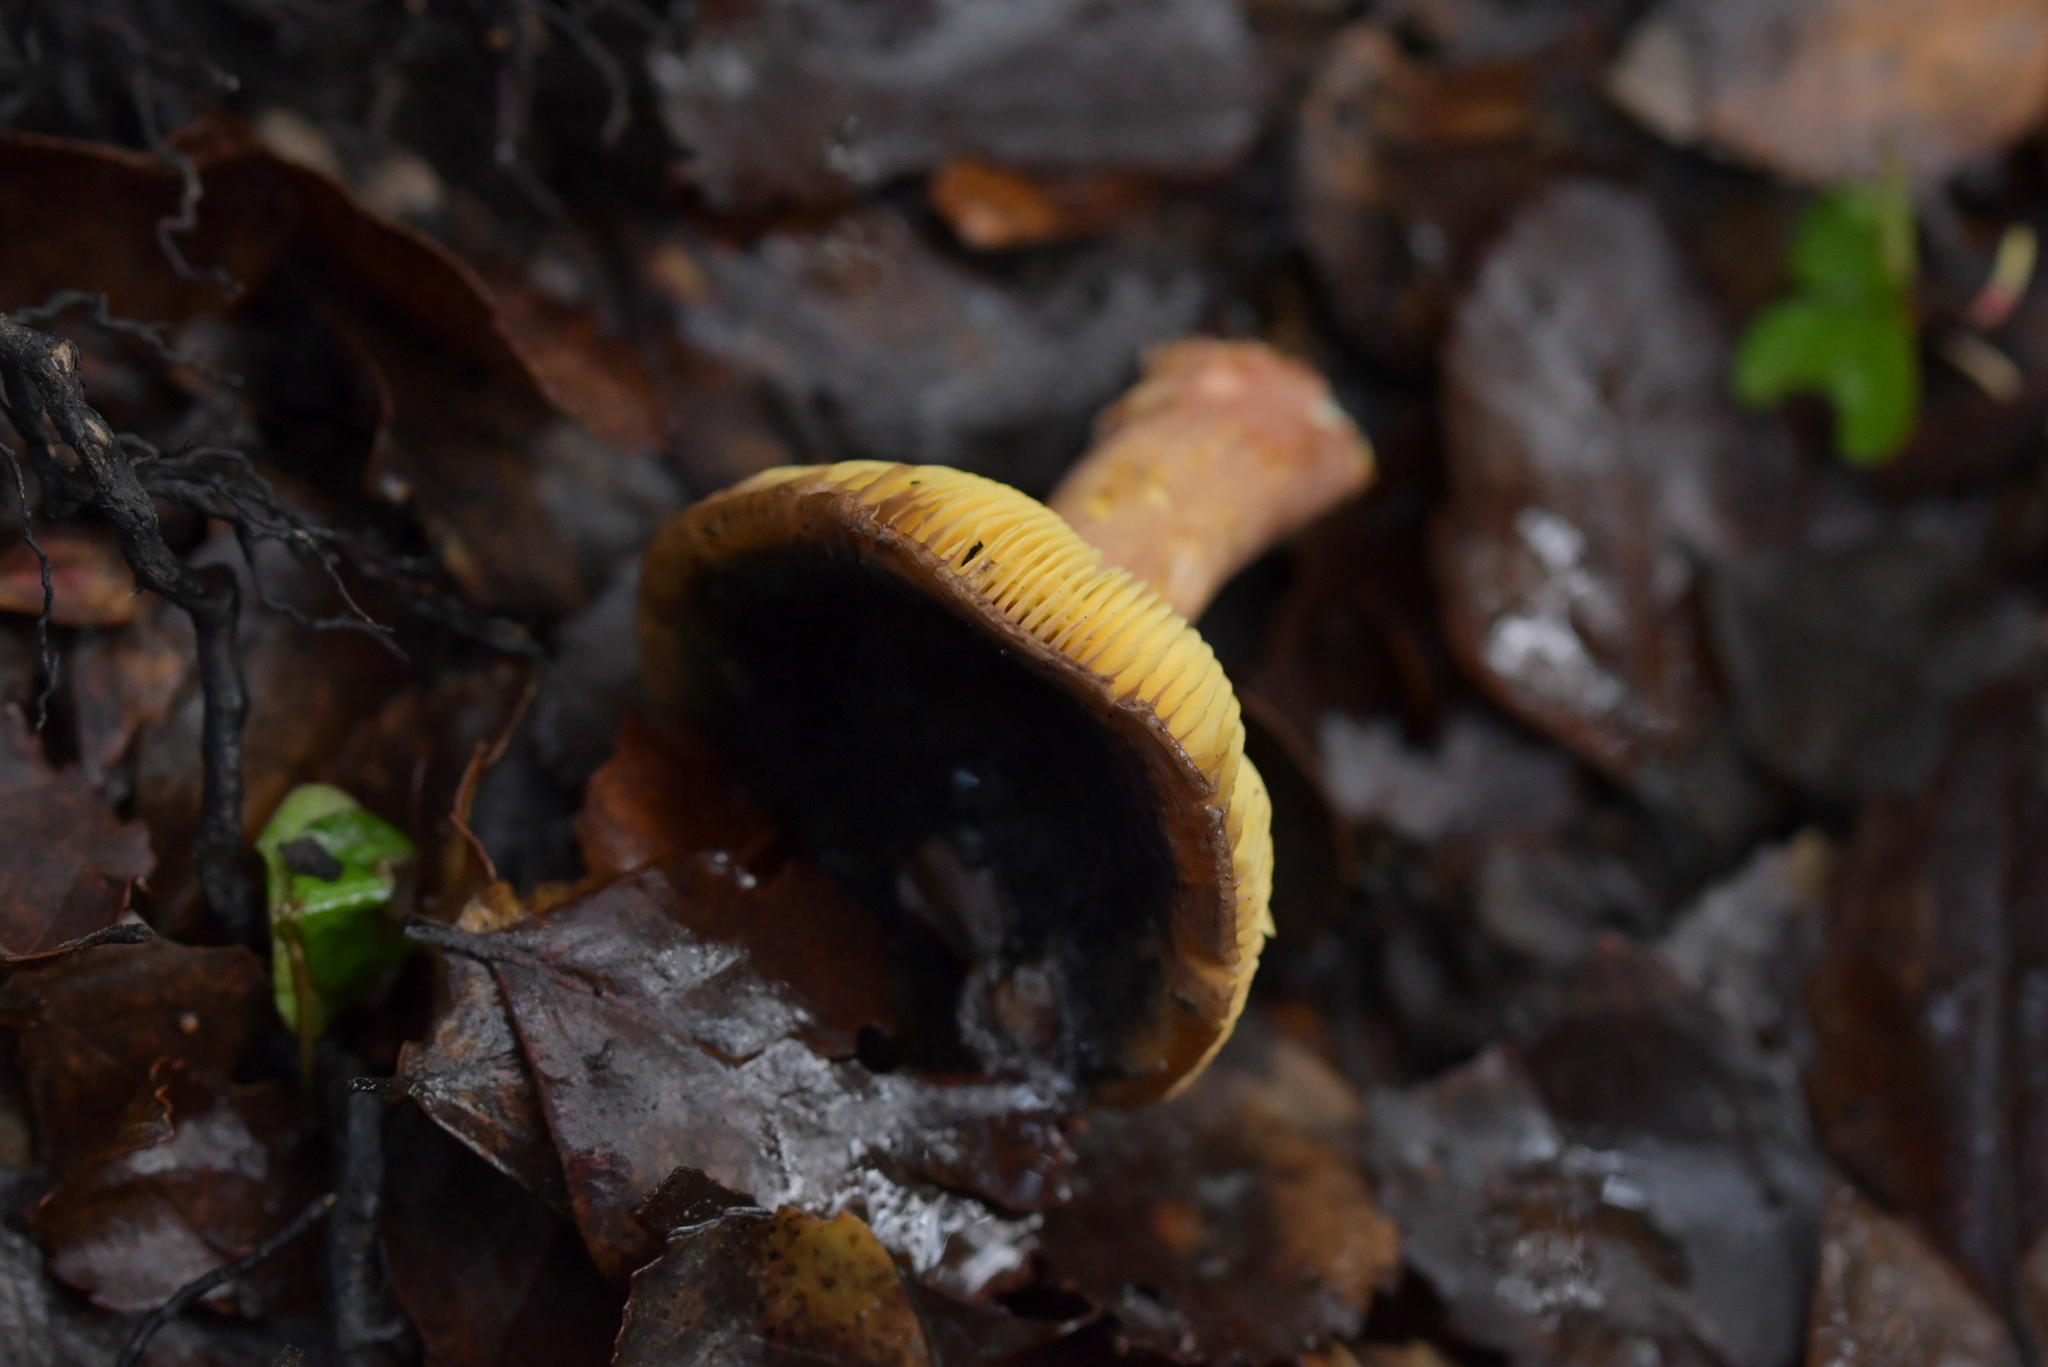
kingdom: Fungi
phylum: Basidiomycota
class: Agaricomycetes
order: Russulales
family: Russulaceae
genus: Russula
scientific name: Russula tricholomopsis
